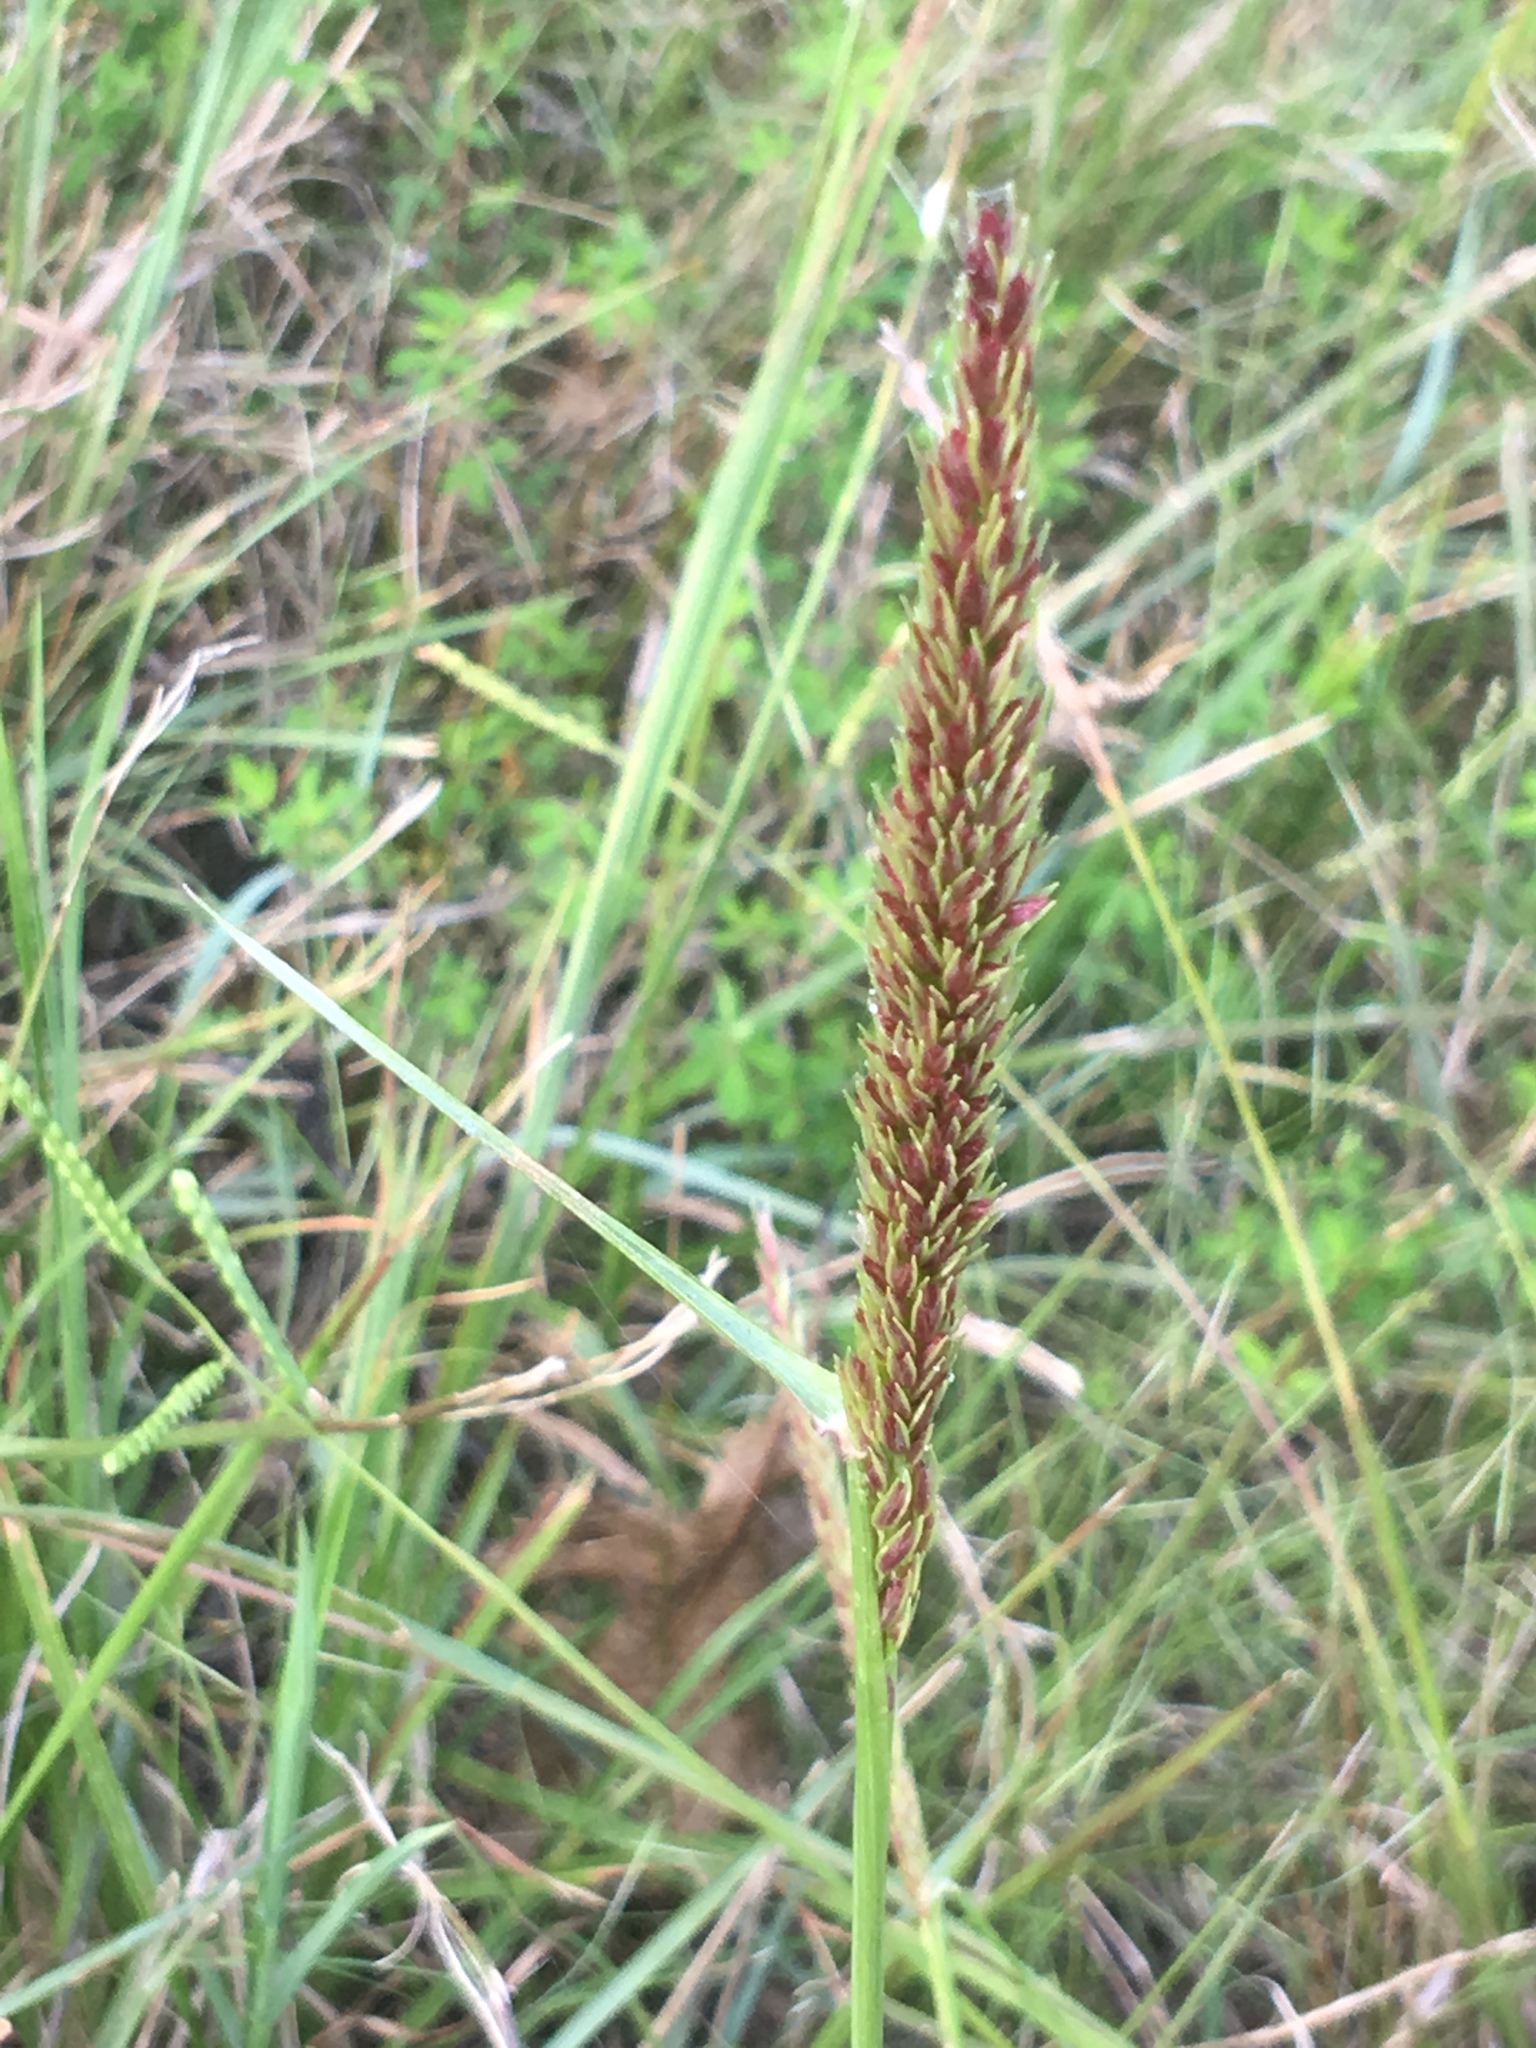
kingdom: Plantae
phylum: Tracheophyta
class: Liliopsida
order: Poales
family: Poaceae
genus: Tridens
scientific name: Tridens strictus
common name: Long-spike tridens
